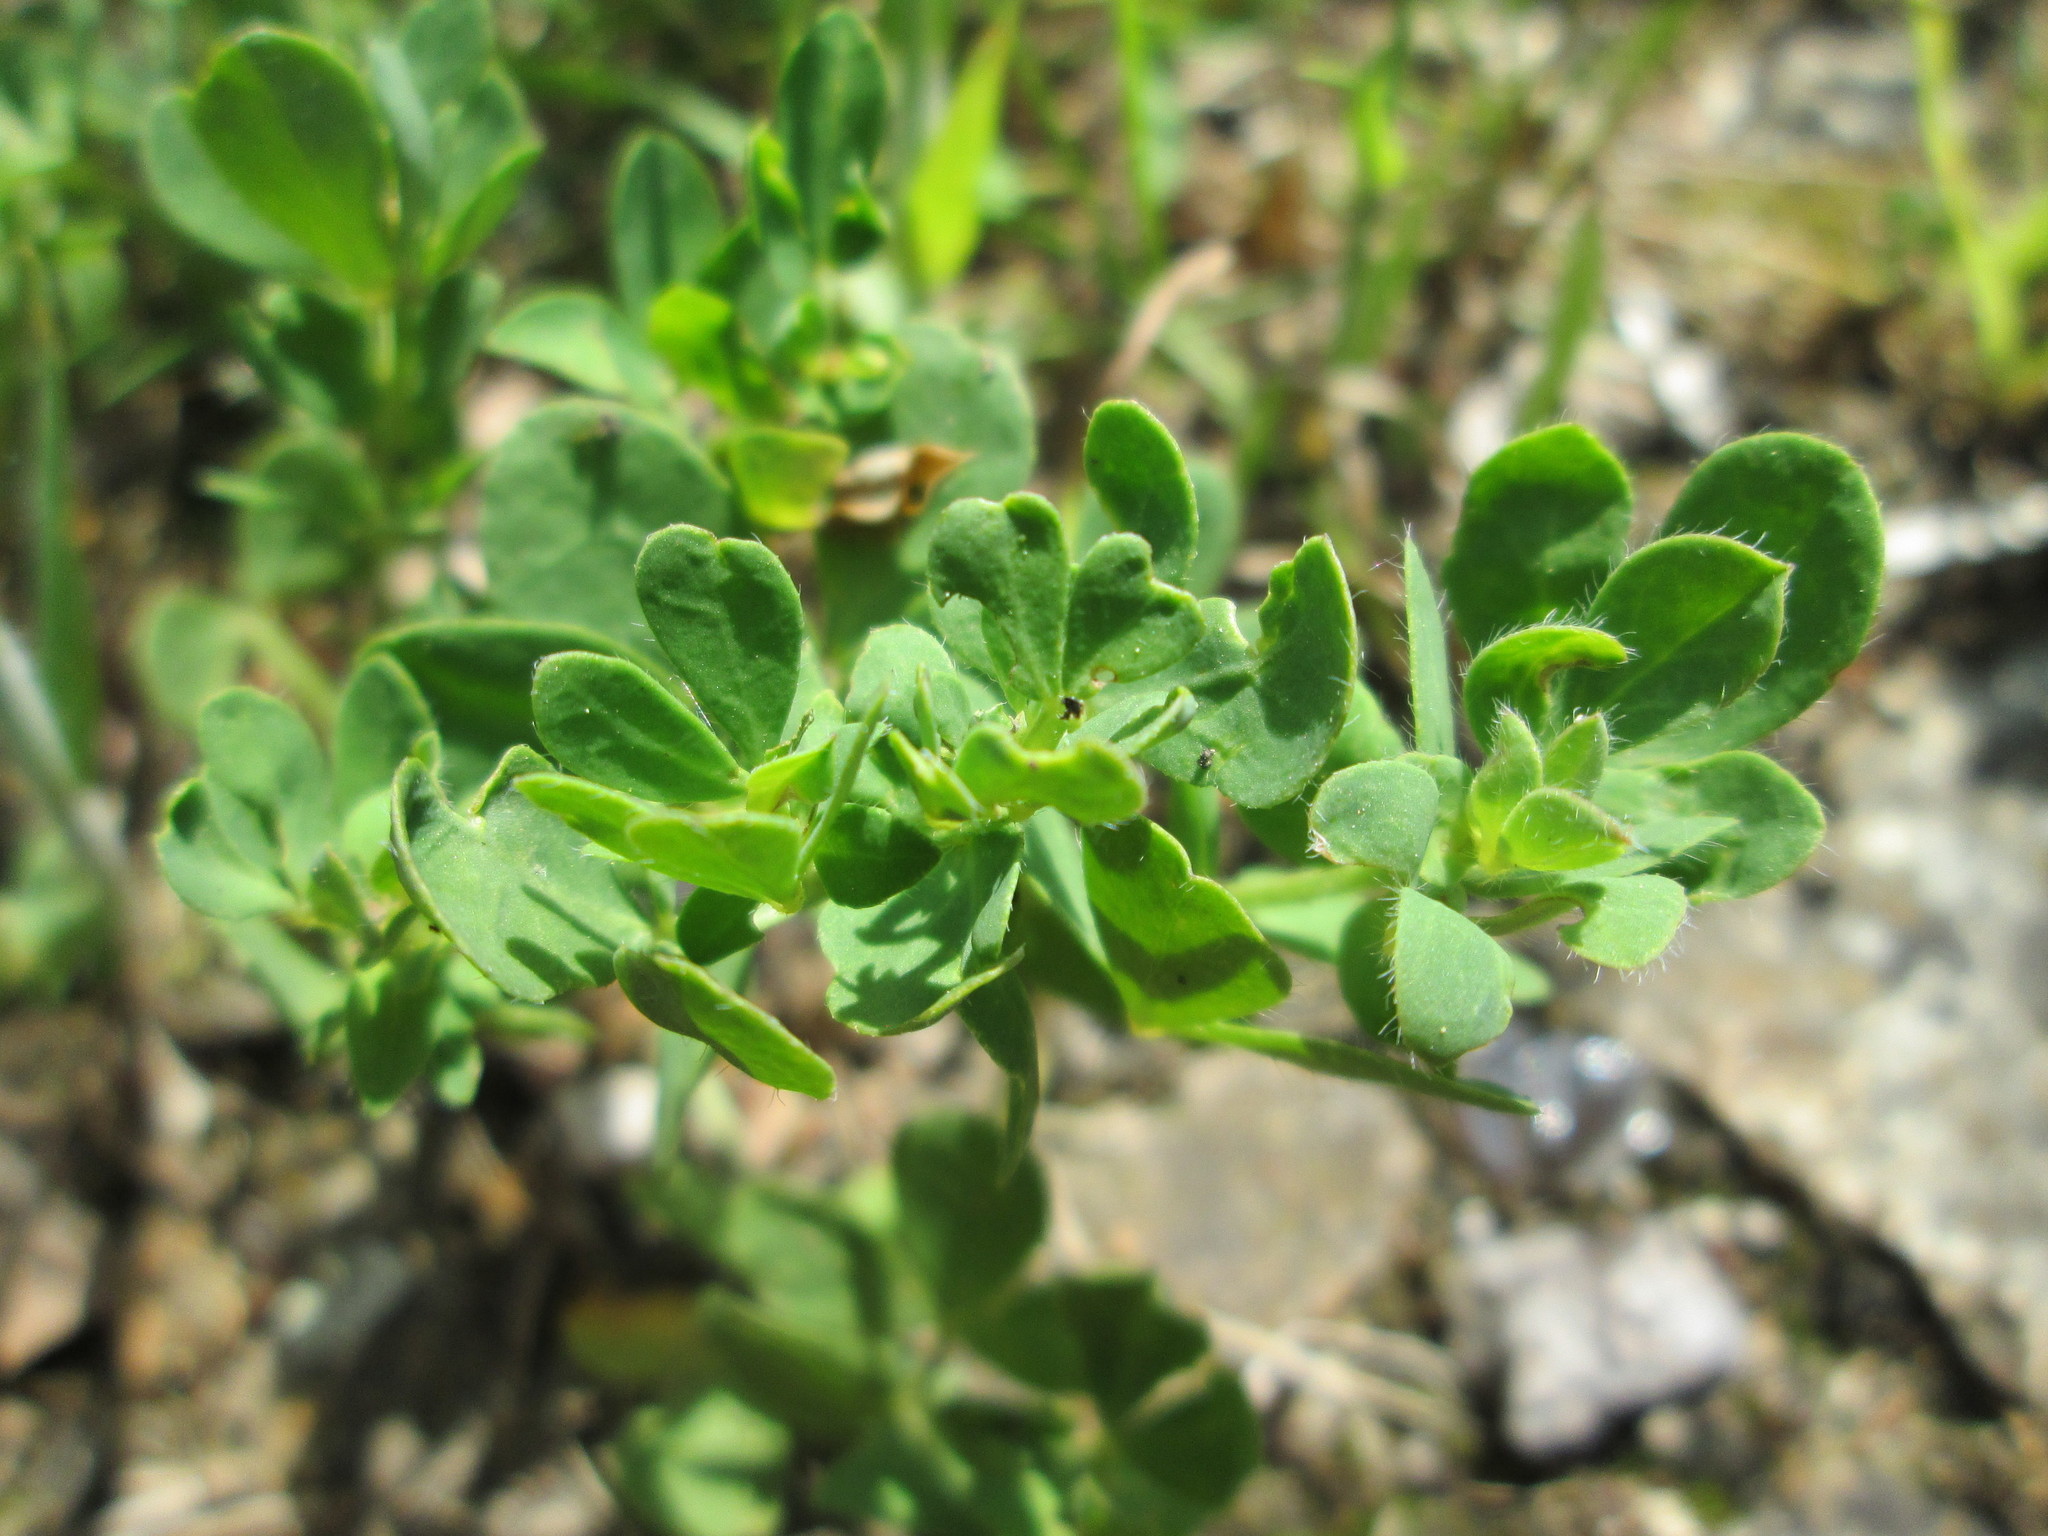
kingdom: Plantae
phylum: Tracheophyta
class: Magnoliopsida
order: Fabales
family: Fabaceae
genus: Lotus
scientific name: Lotus corniculatus
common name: Common bird's-foot-trefoil
